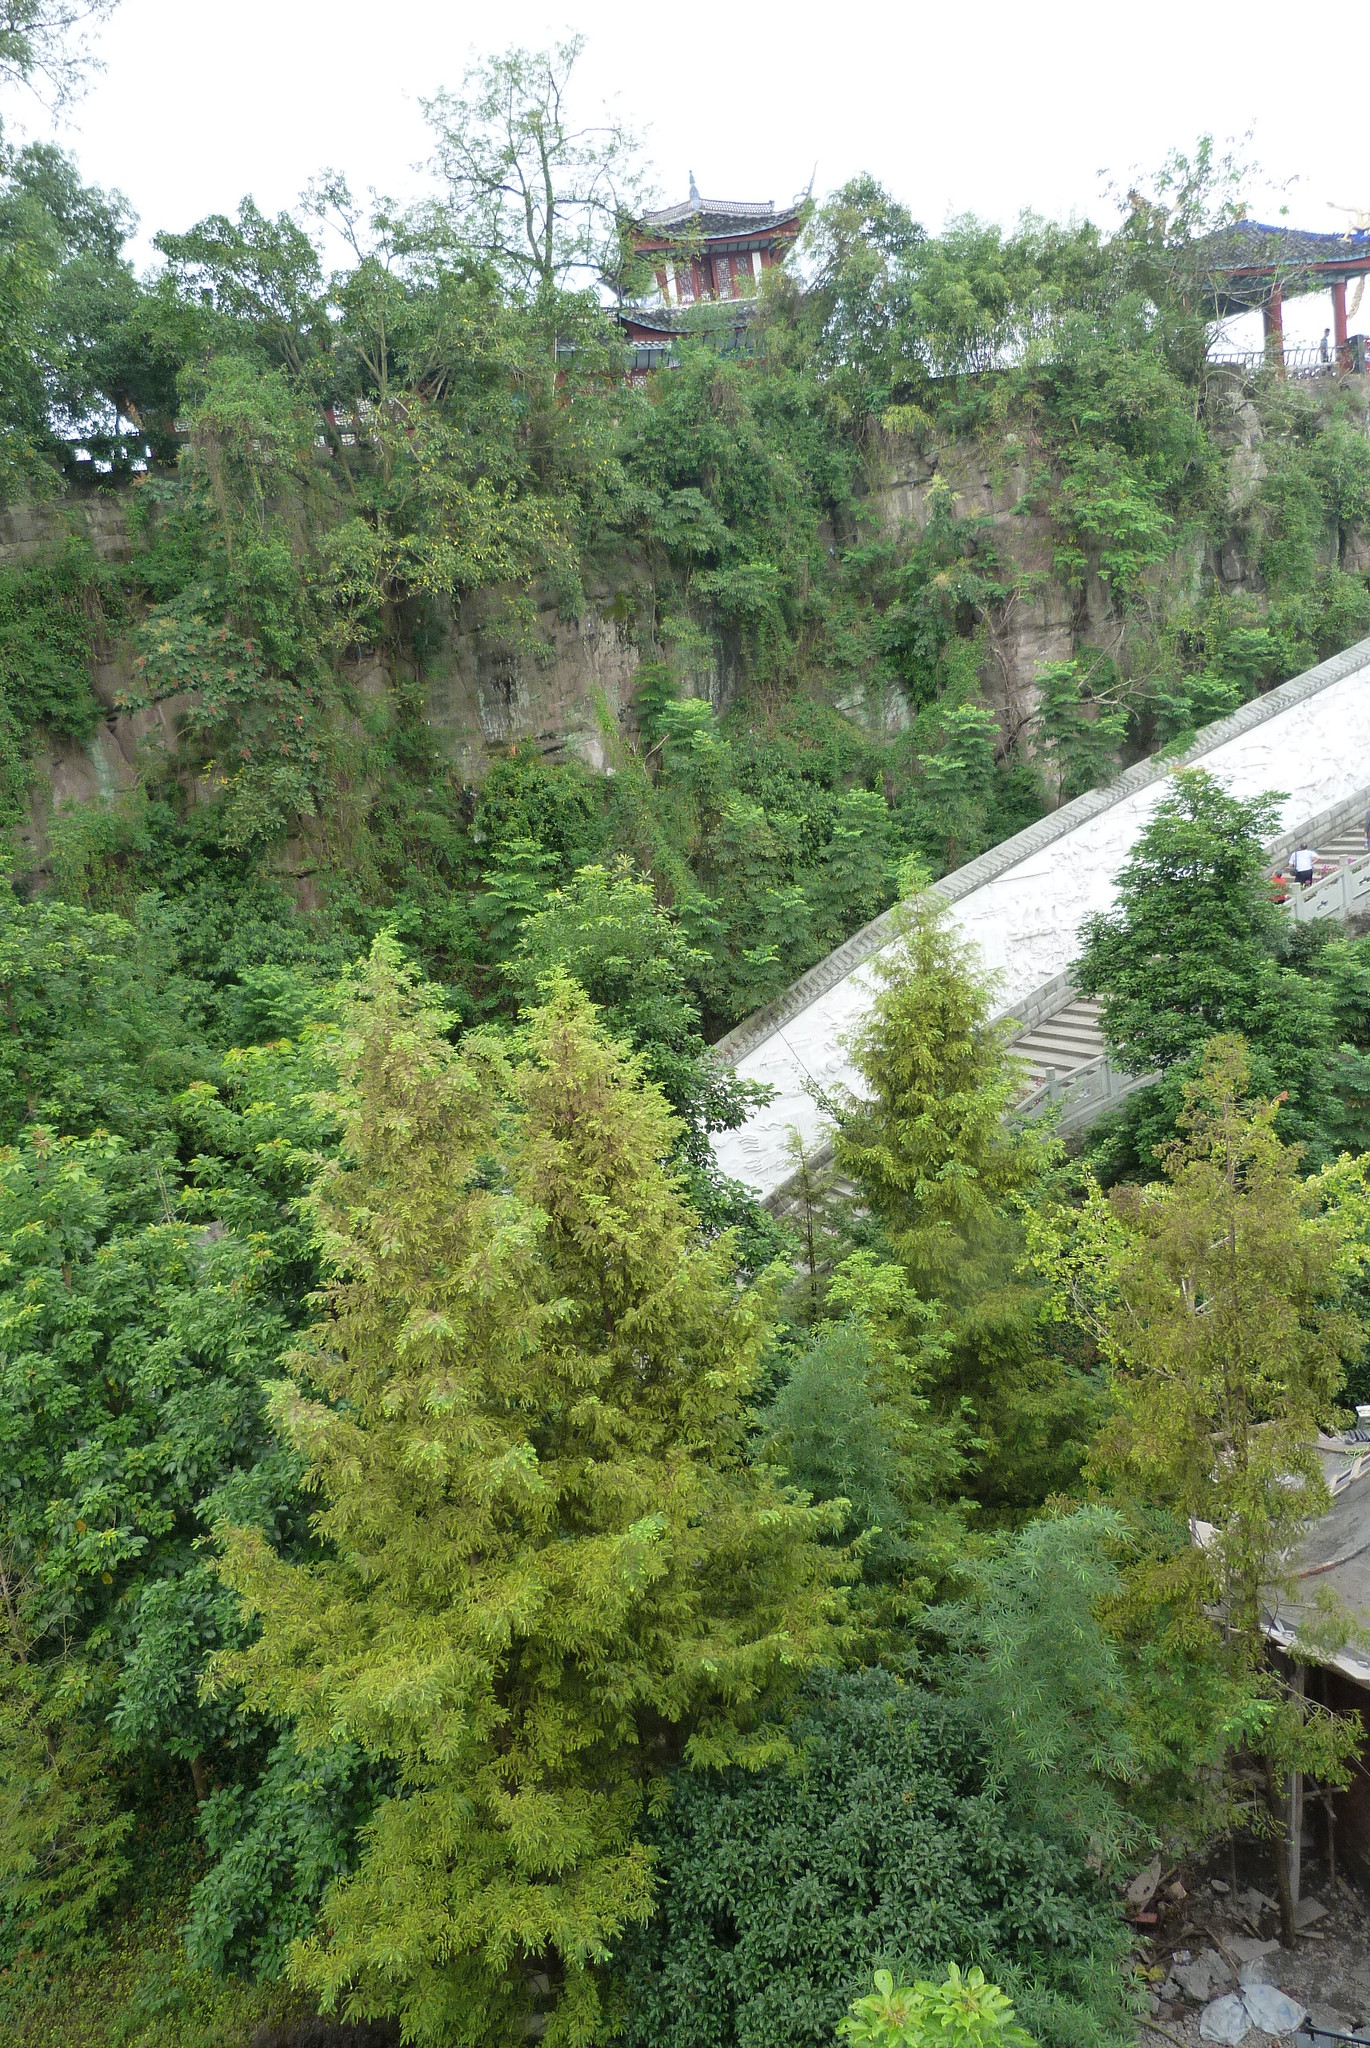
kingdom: Plantae
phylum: Tracheophyta
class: Pinopsida
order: Pinales
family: Cupressaceae
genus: Metasequoia
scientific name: Metasequoia glyptostroboides
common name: Dawn redwood
